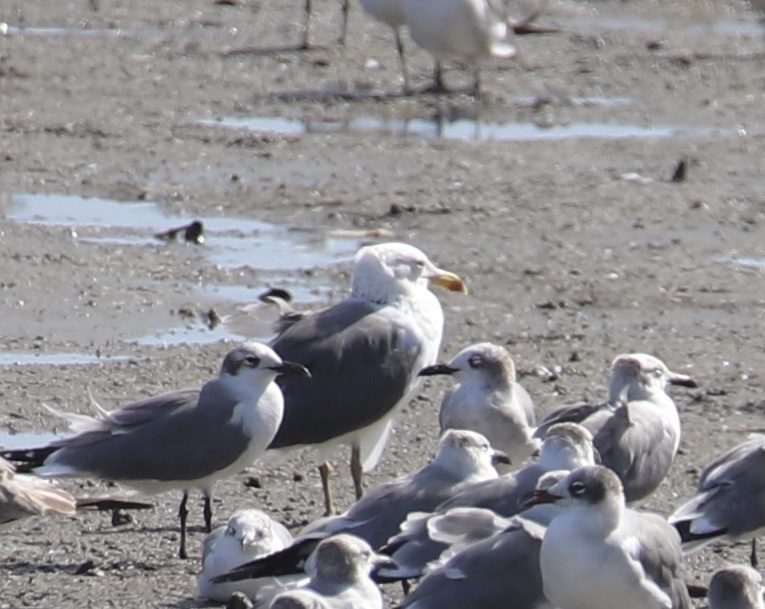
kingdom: Animalia
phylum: Chordata
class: Aves
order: Charadriiformes
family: Laridae
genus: Larus
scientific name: Larus fuscus
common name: Lesser black-backed gull
